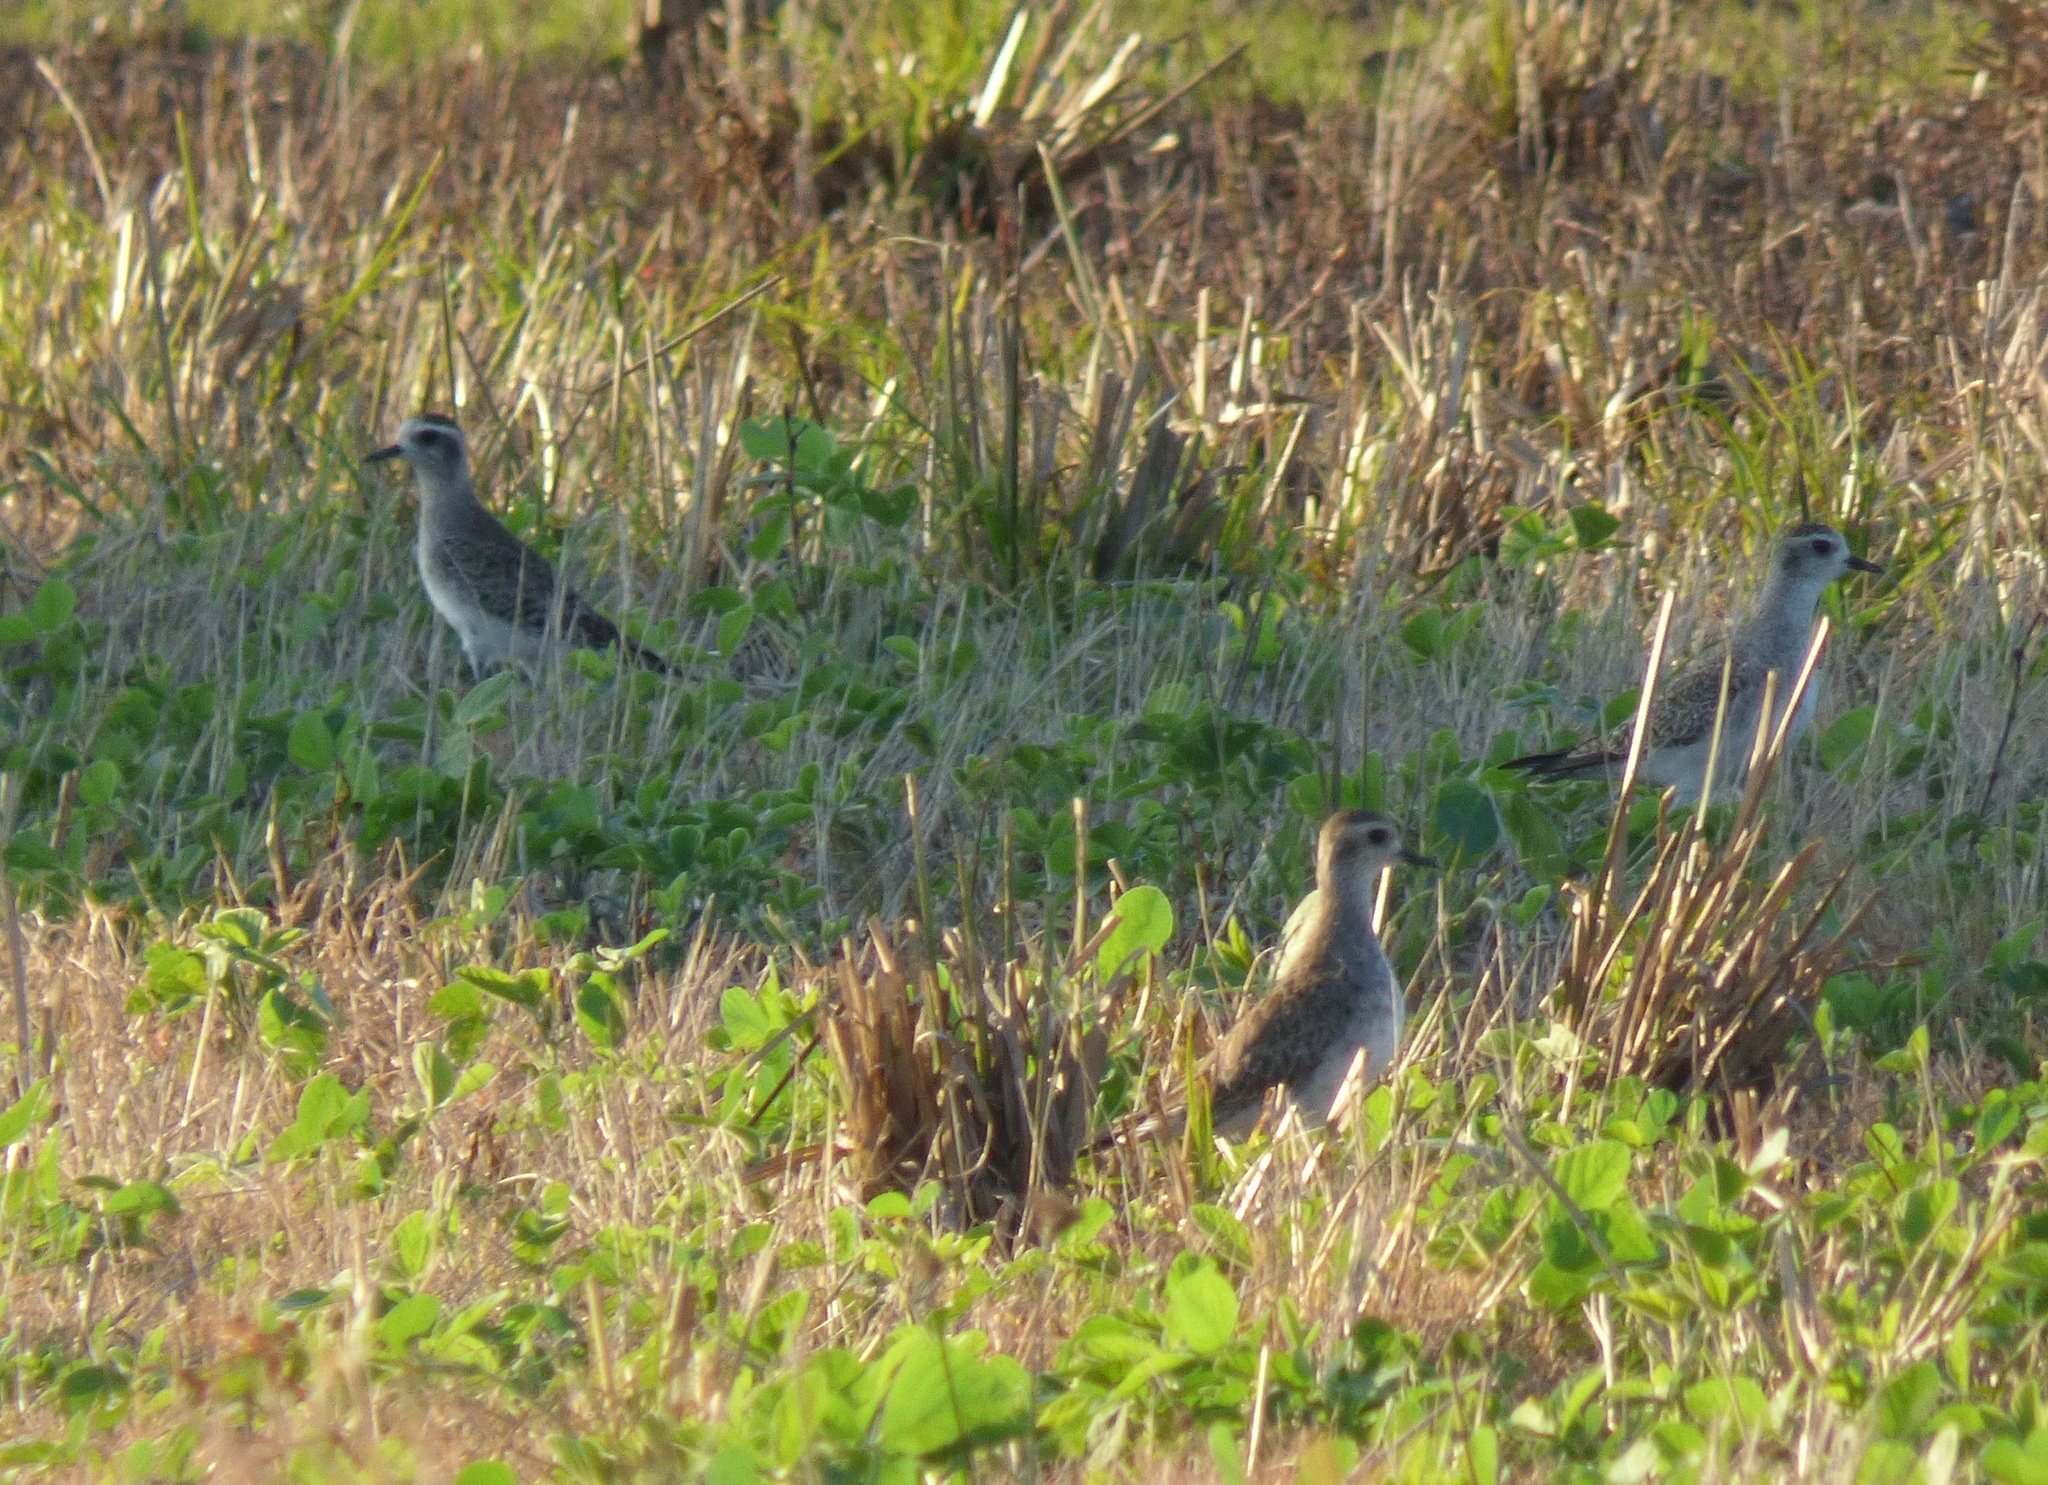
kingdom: Animalia
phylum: Chordata
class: Aves
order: Charadriiformes
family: Charadriidae
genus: Pluvialis
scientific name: Pluvialis dominica
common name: American golden plover
